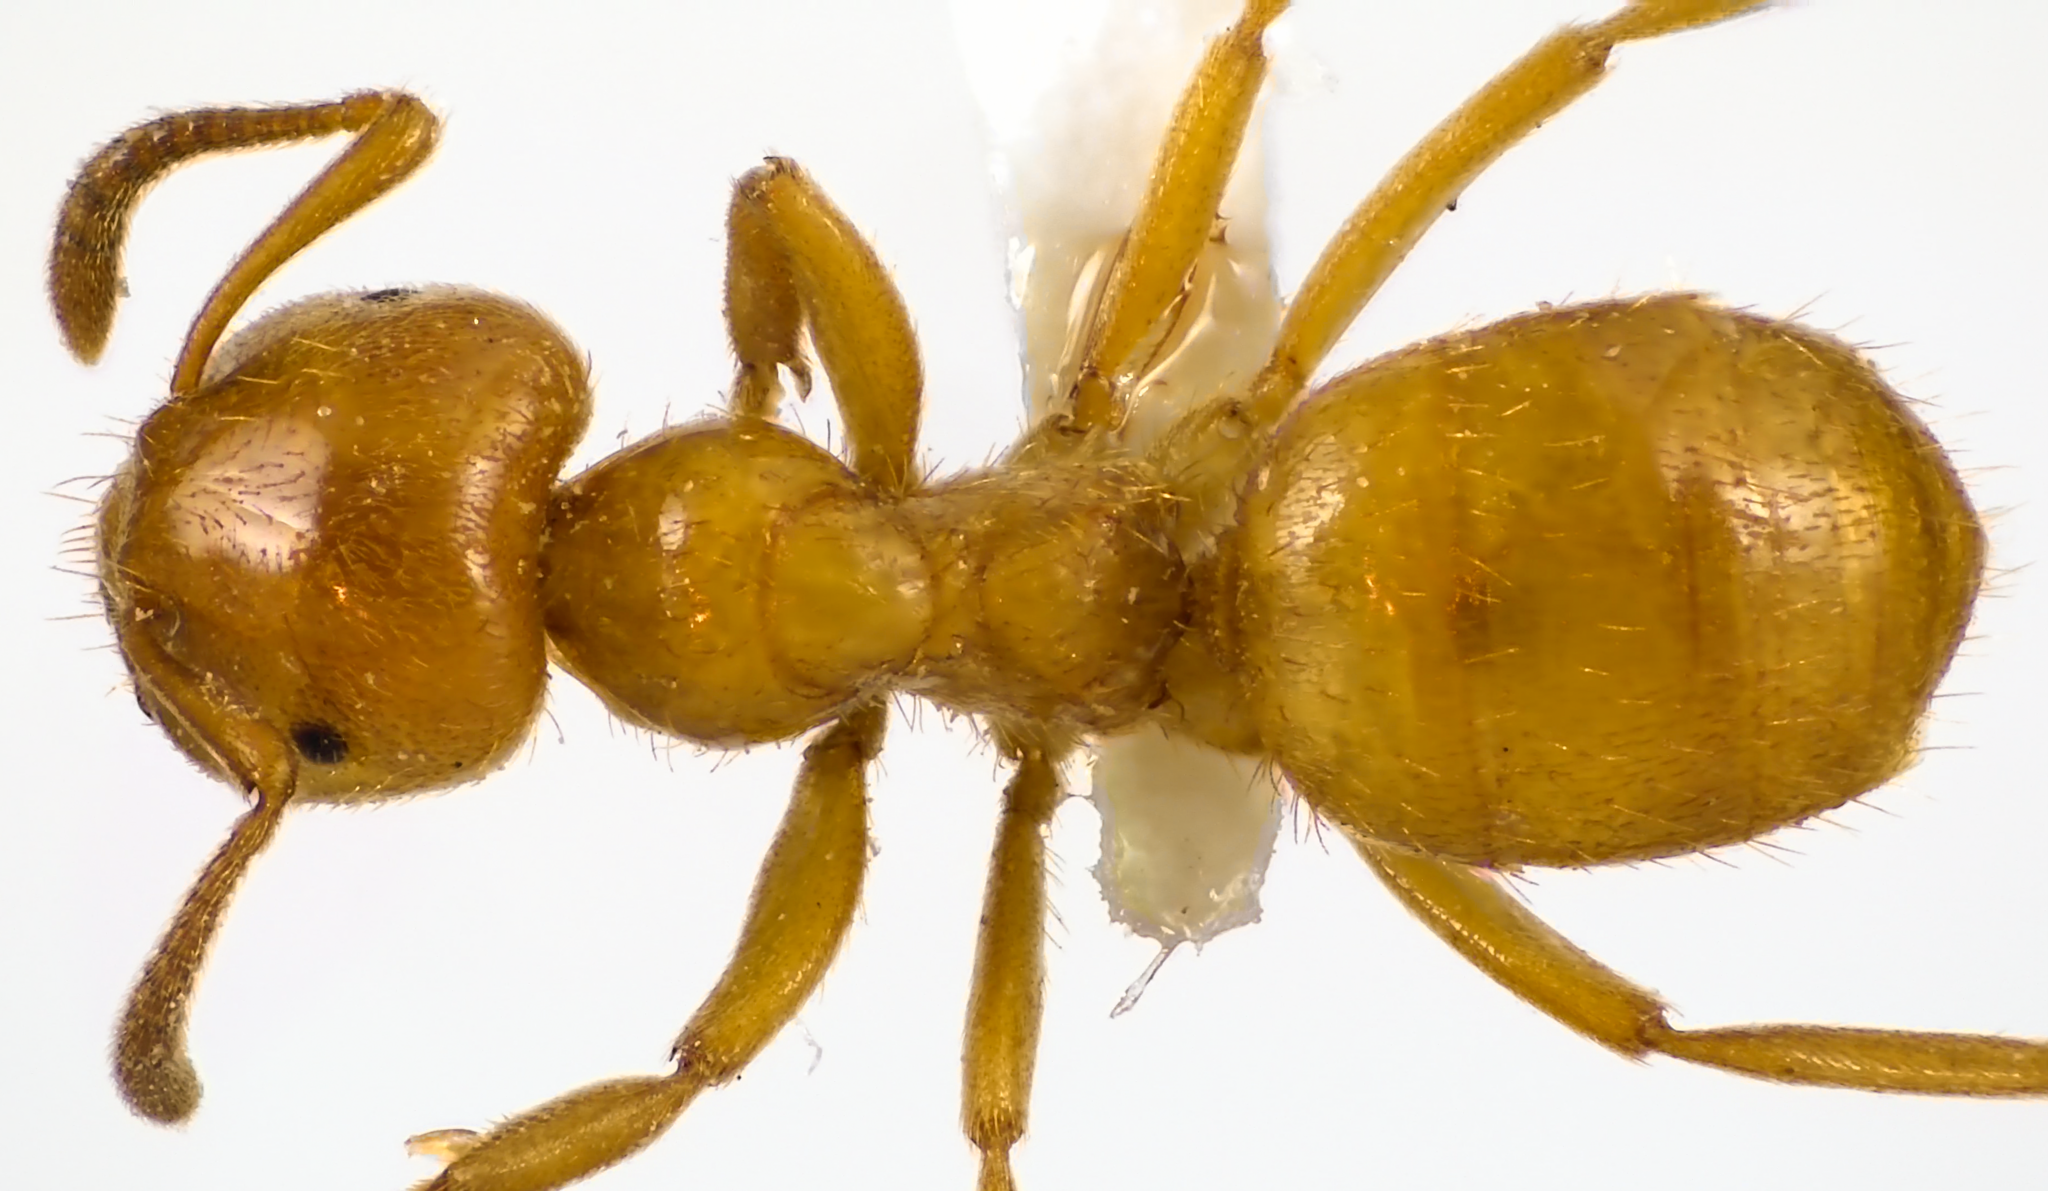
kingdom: Animalia
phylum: Arthropoda
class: Insecta
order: Hymenoptera
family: Formicidae
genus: Lasius
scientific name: Lasius claviger
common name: Common citronella ant
